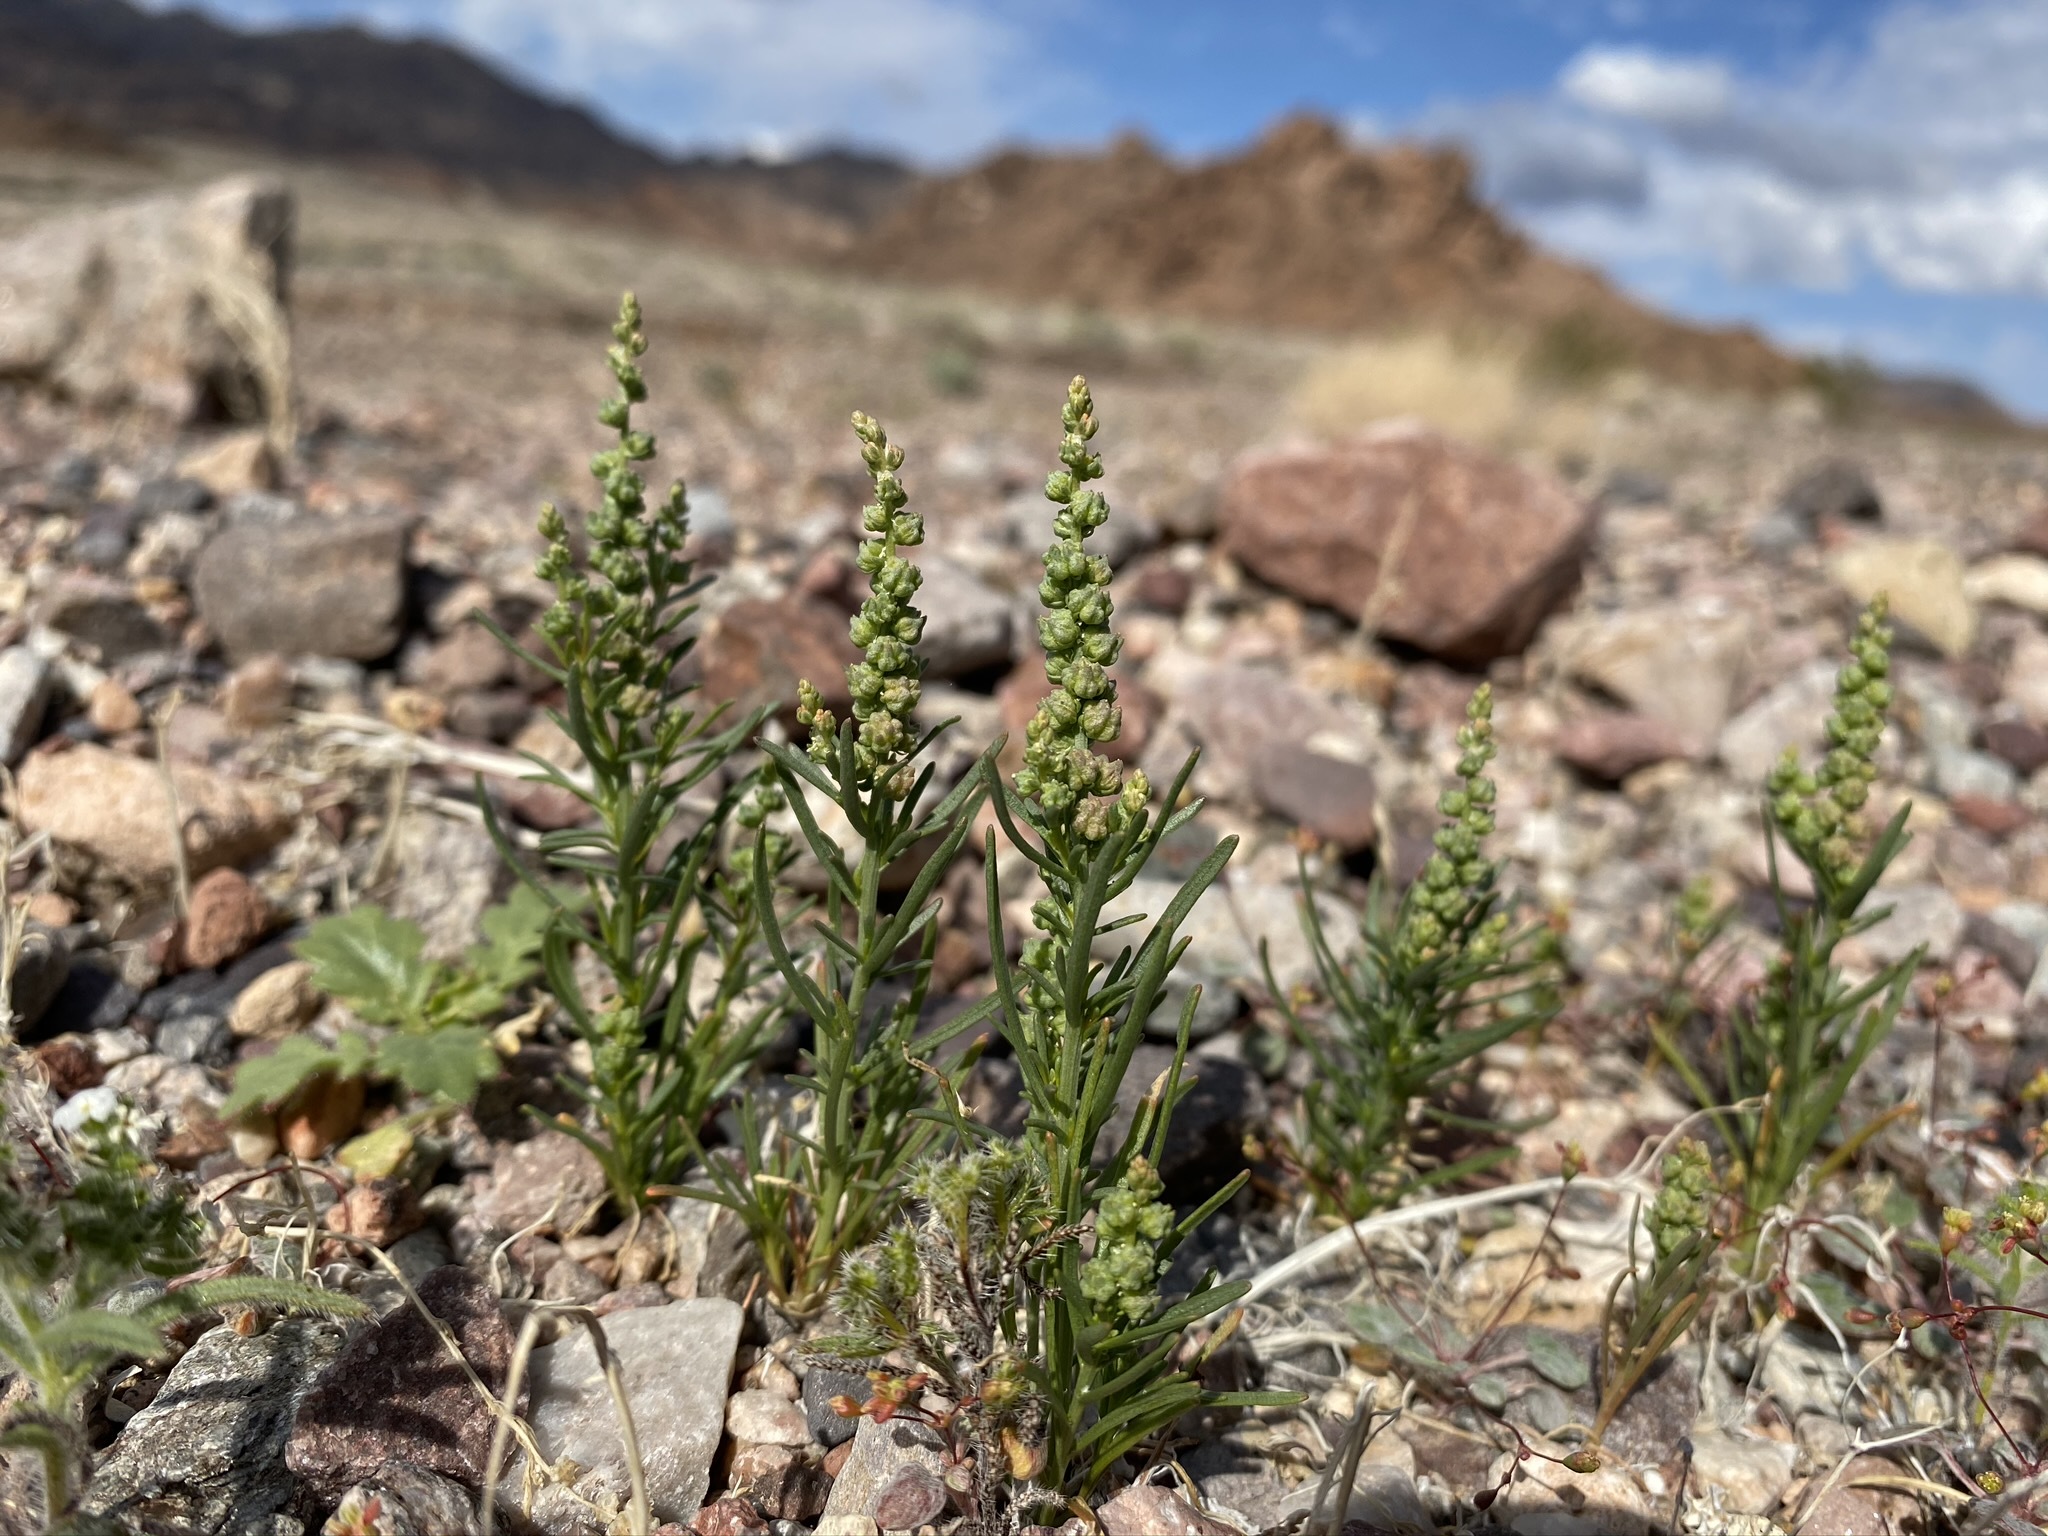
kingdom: Plantae
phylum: Tracheophyta
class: Magnoliopsida
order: Brassicales
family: Resedaceae
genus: Oligomeris
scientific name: Oligomeris linifolia
